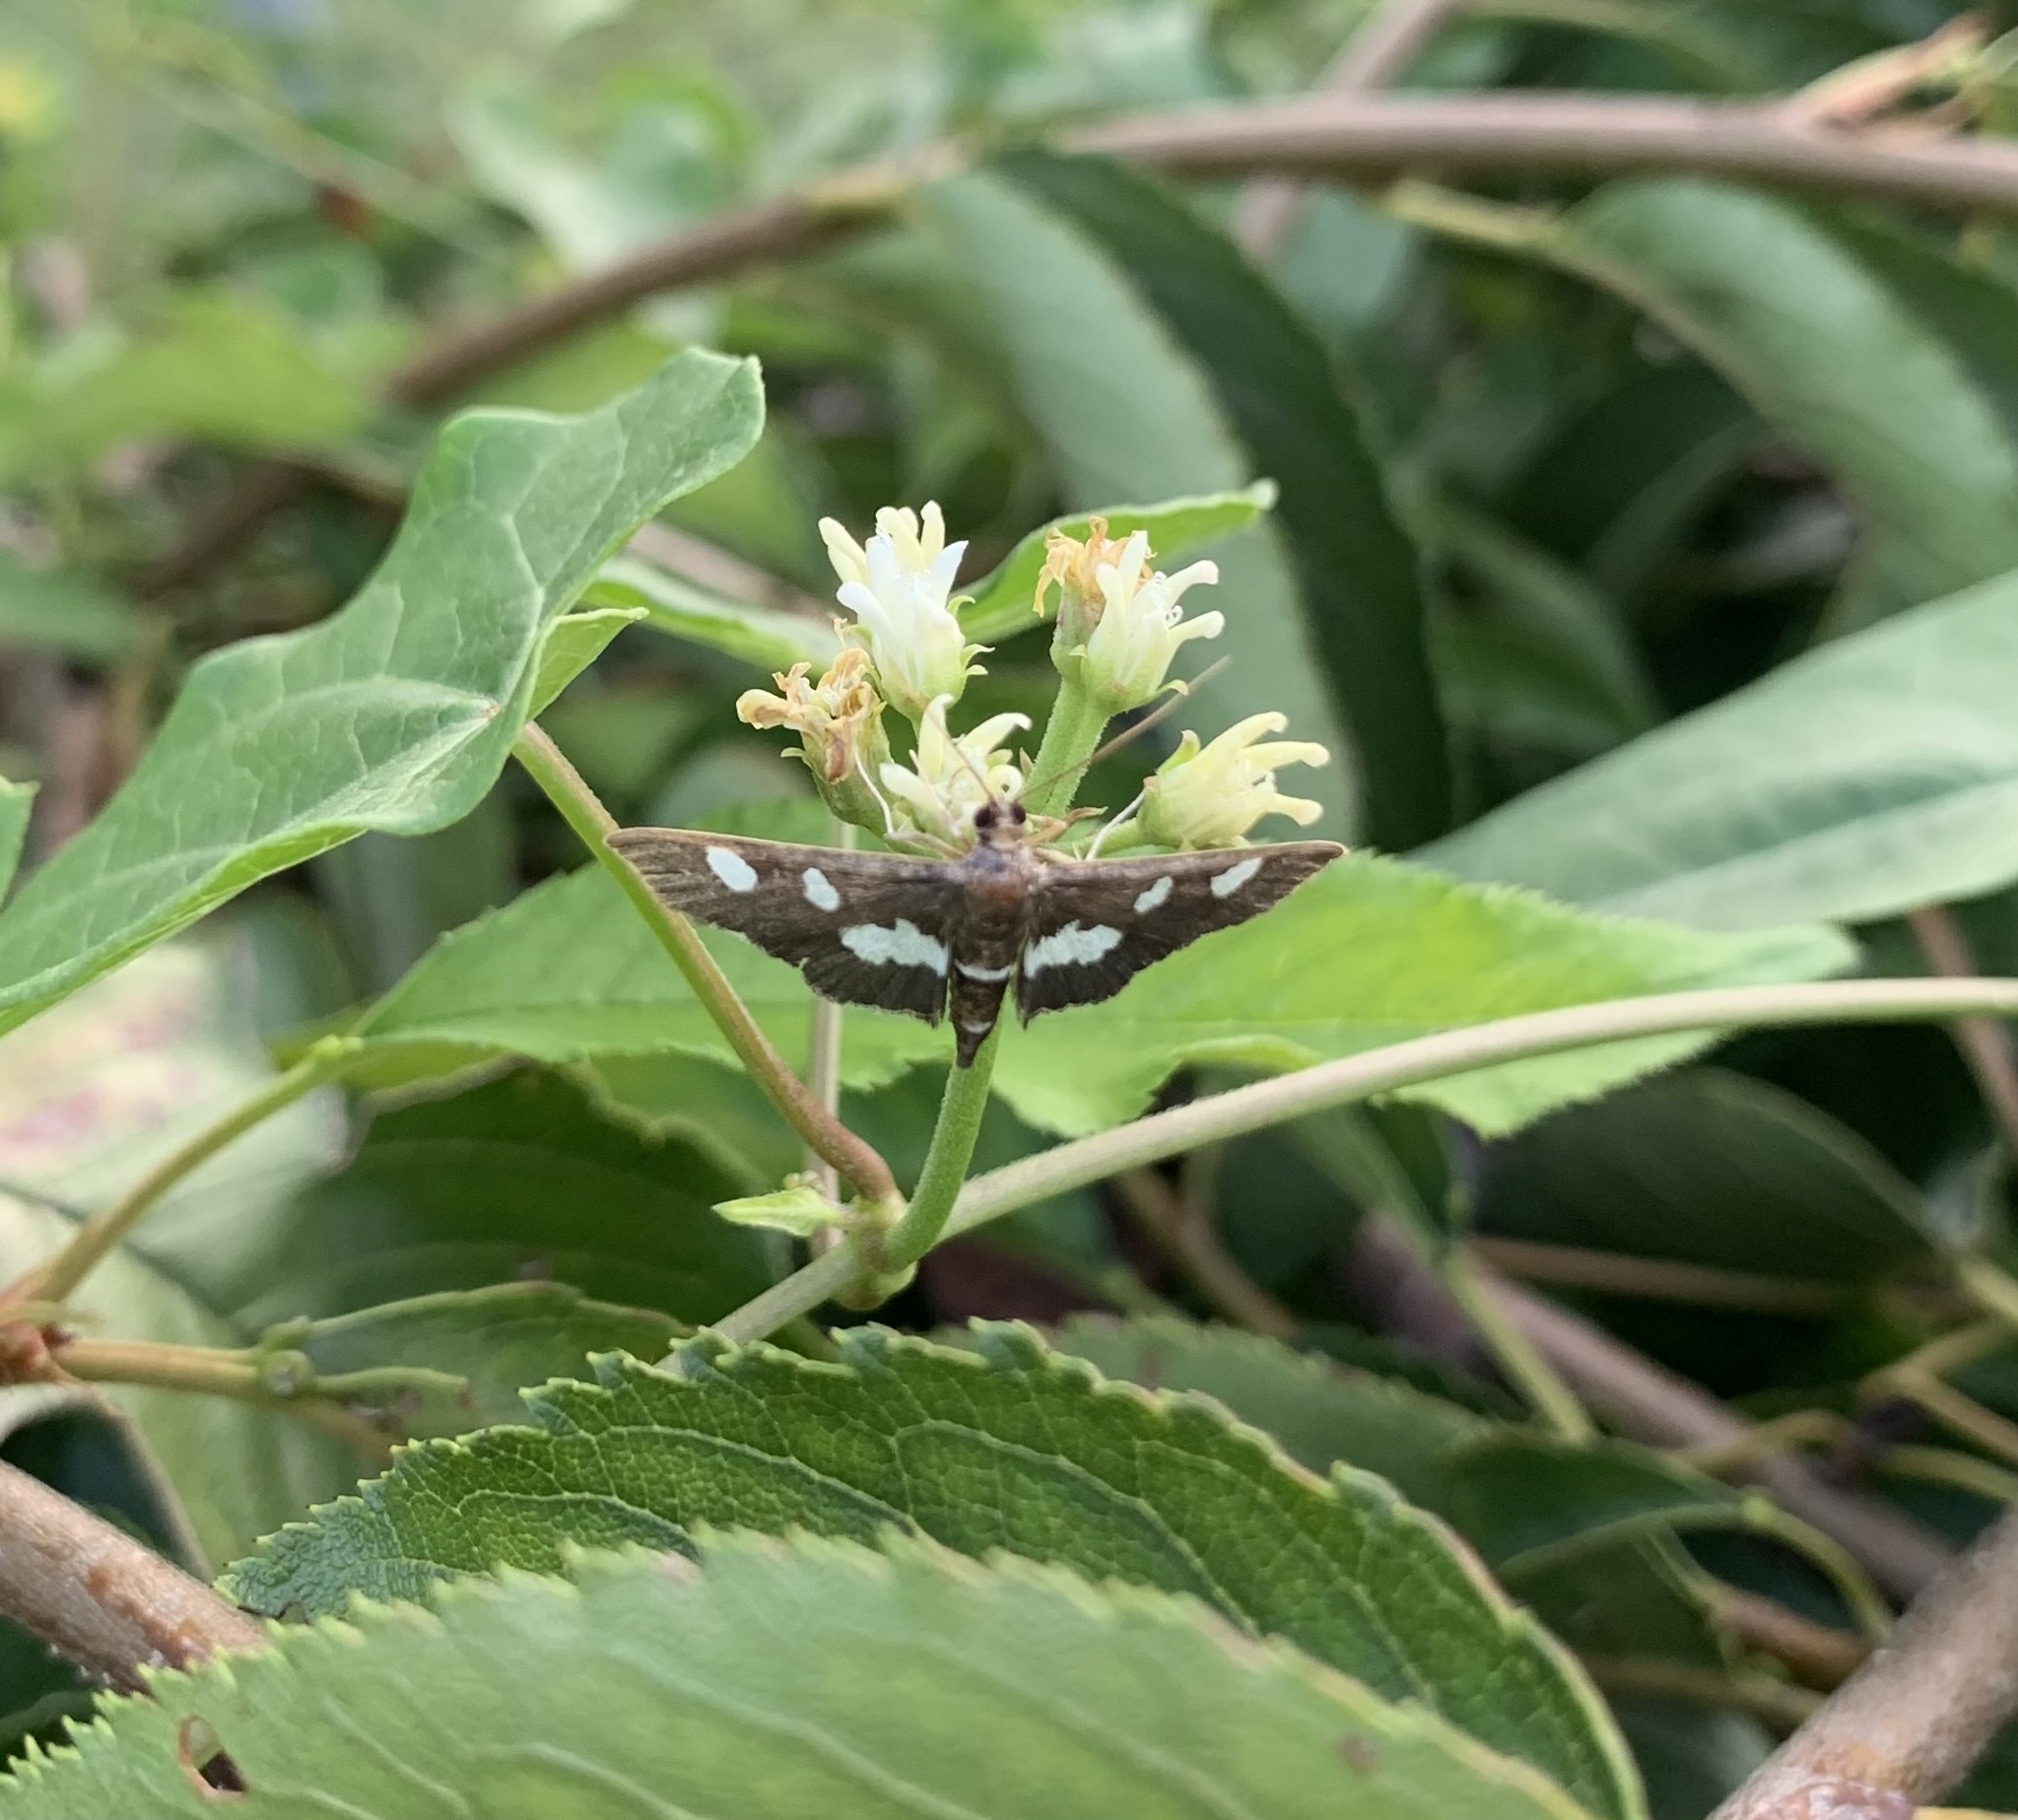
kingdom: Animalia
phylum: Arthropoda
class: Insecta
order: Lepidoptera
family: Crambidae
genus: Desmia
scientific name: Desmia funeralis
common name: Grape leaf folder moth
